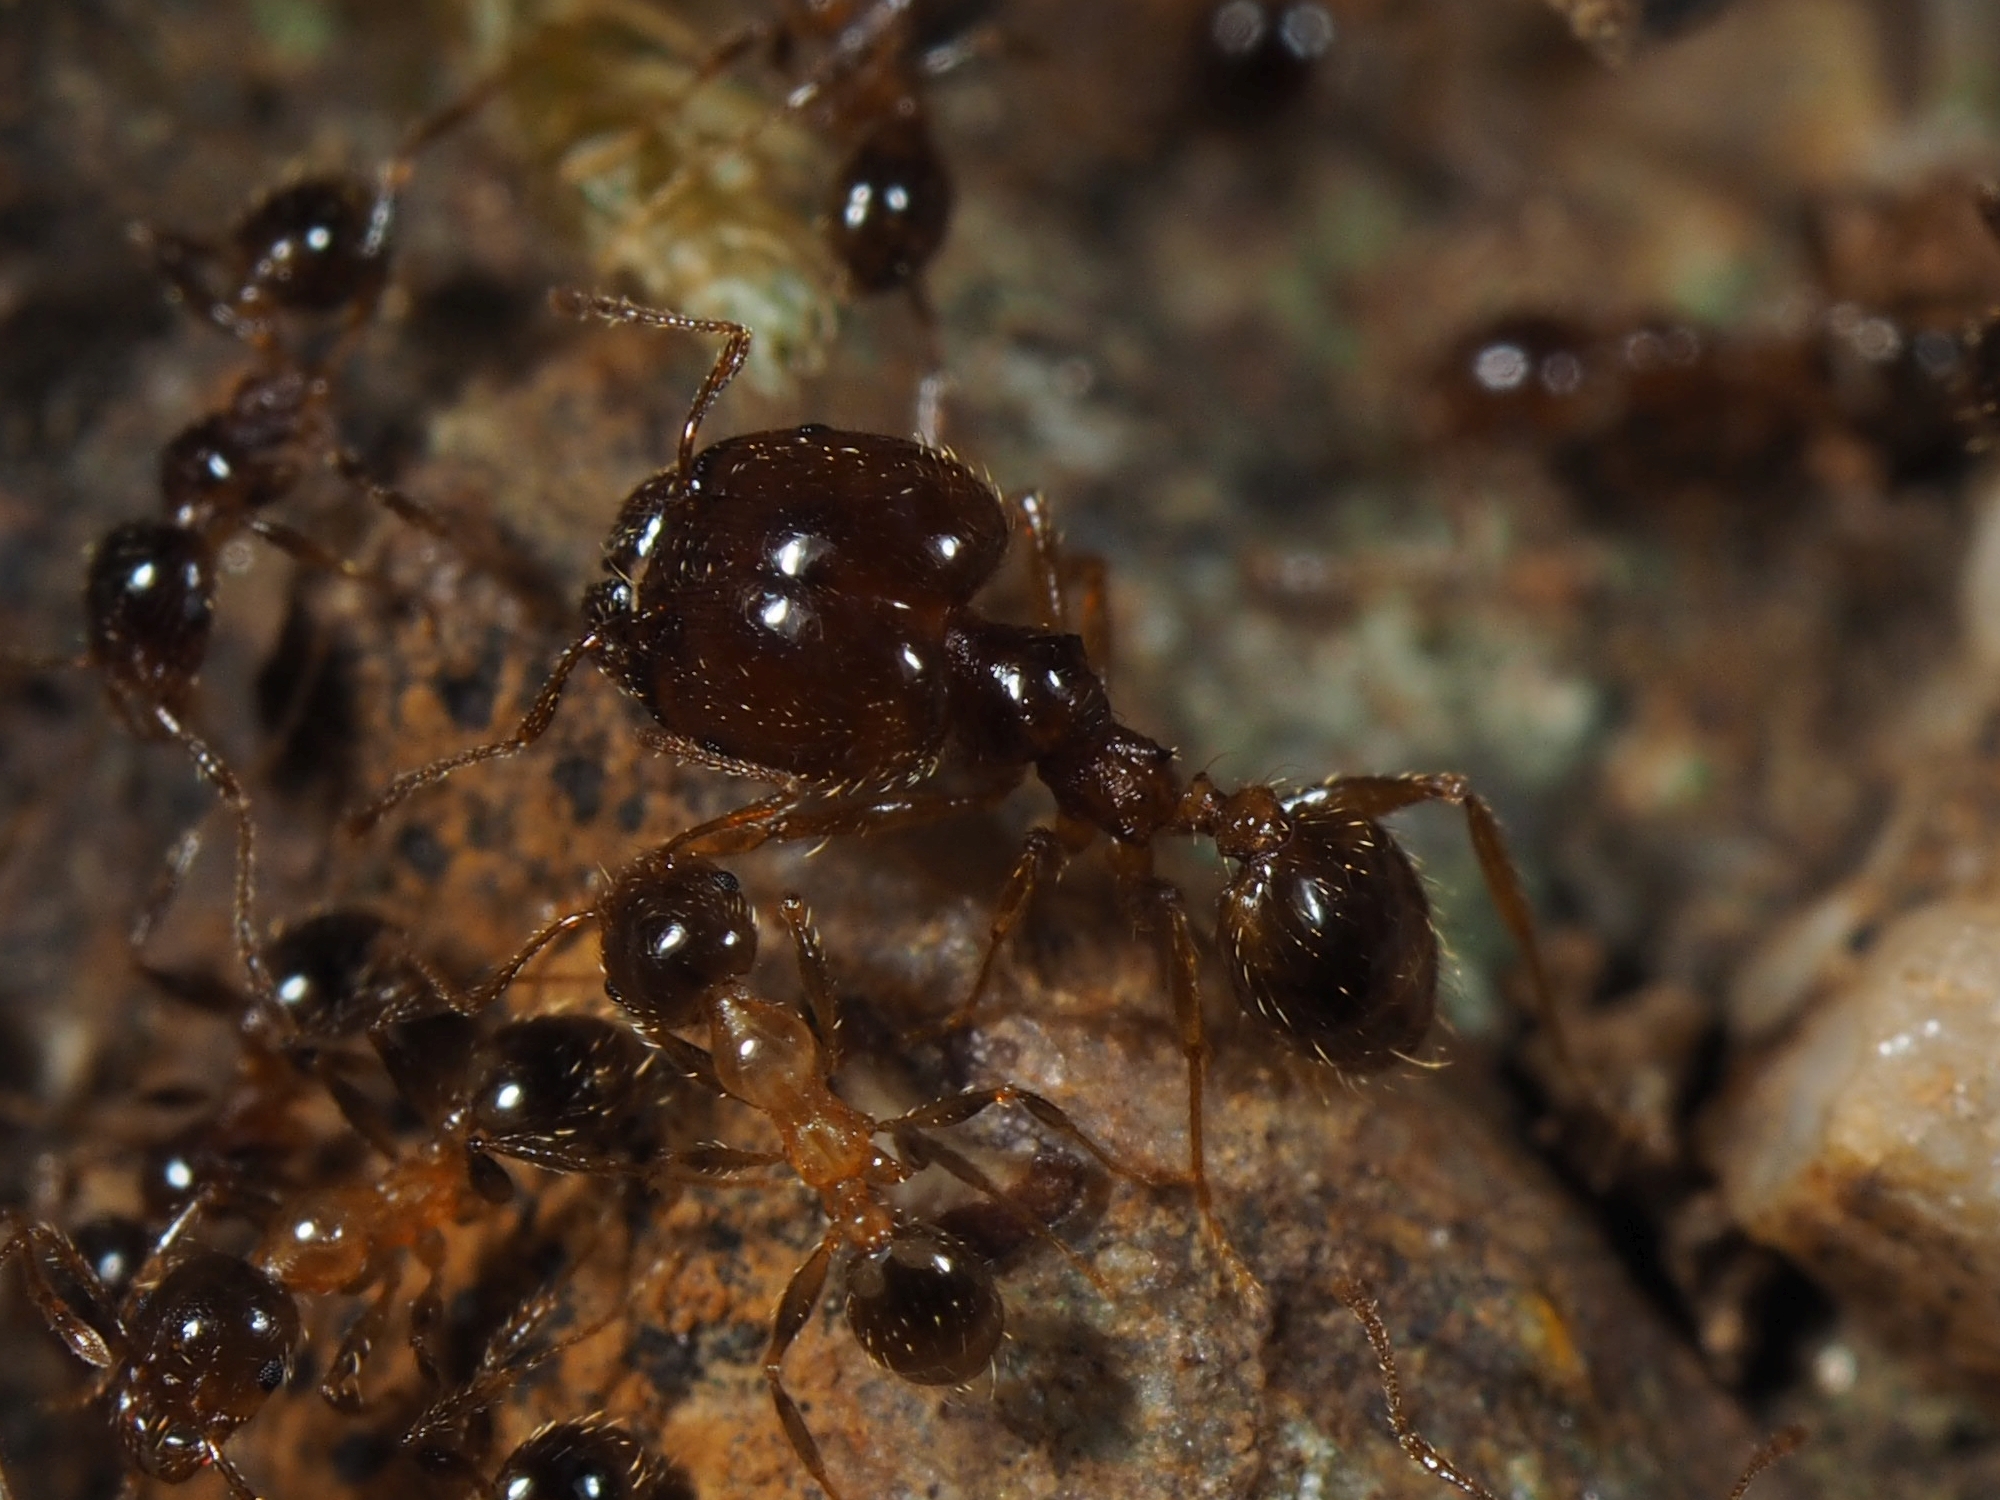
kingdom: Animalia
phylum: Arthropoda
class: Insecta
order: Hymenoptera
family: Formicidae
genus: Pheidole
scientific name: Pheidole pallidula
